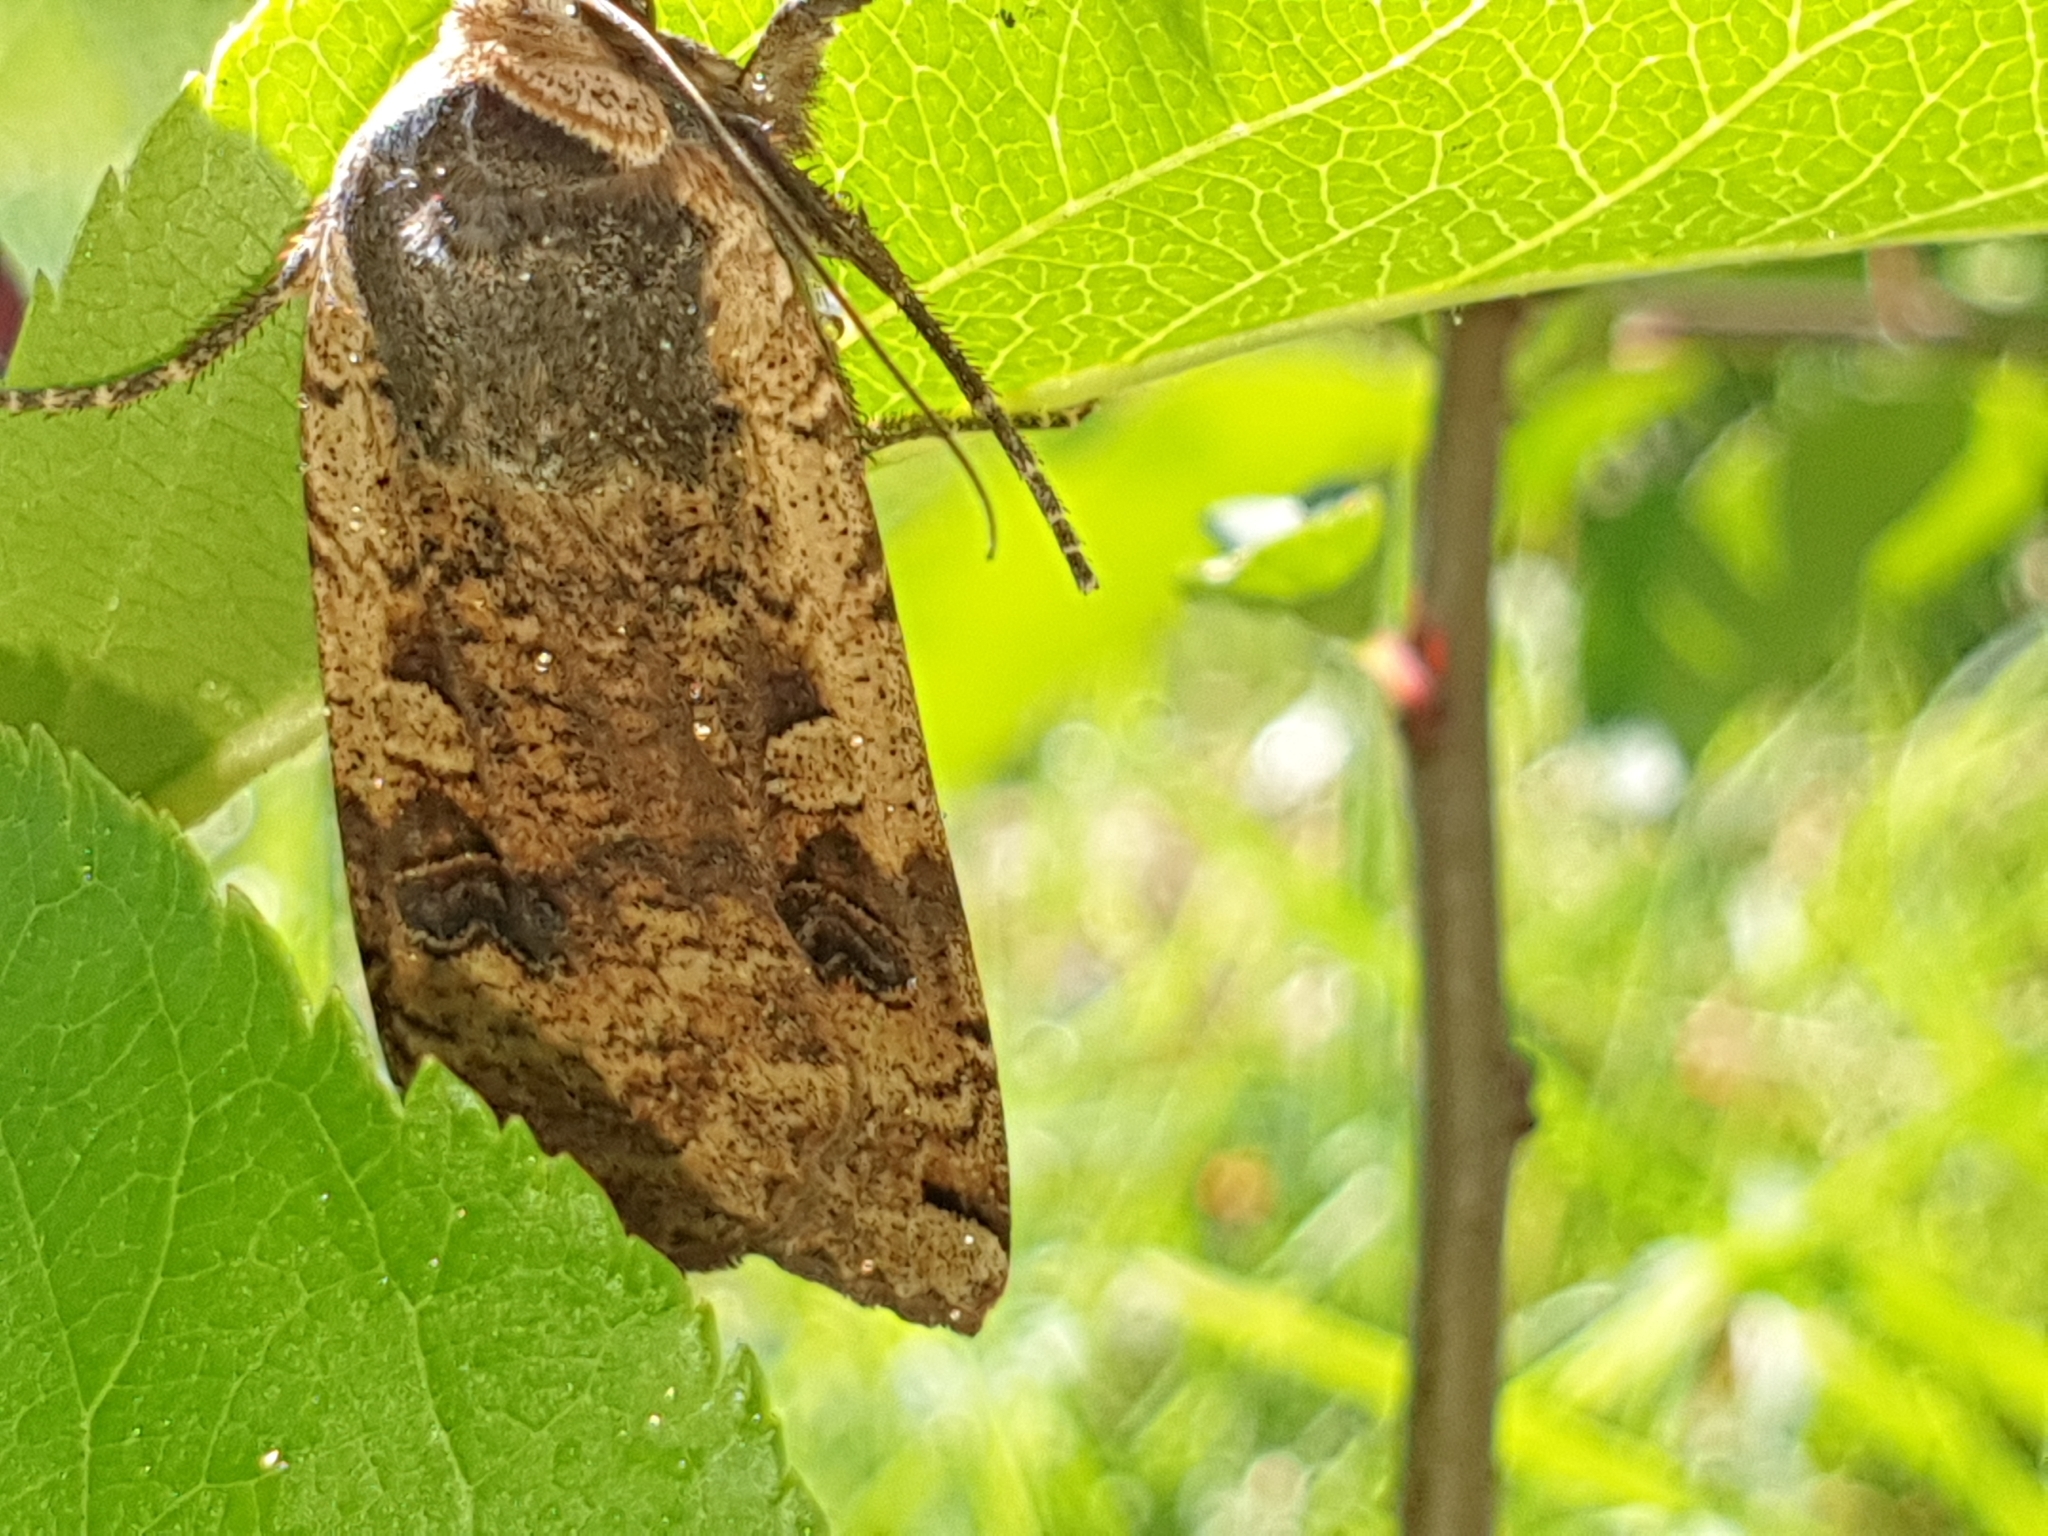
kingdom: Animalia
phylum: Arthropoda
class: Insecta
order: Lepidoptera
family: Noctuidae
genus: Noctua
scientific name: Noctua pronuba
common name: Large yellow underwing
